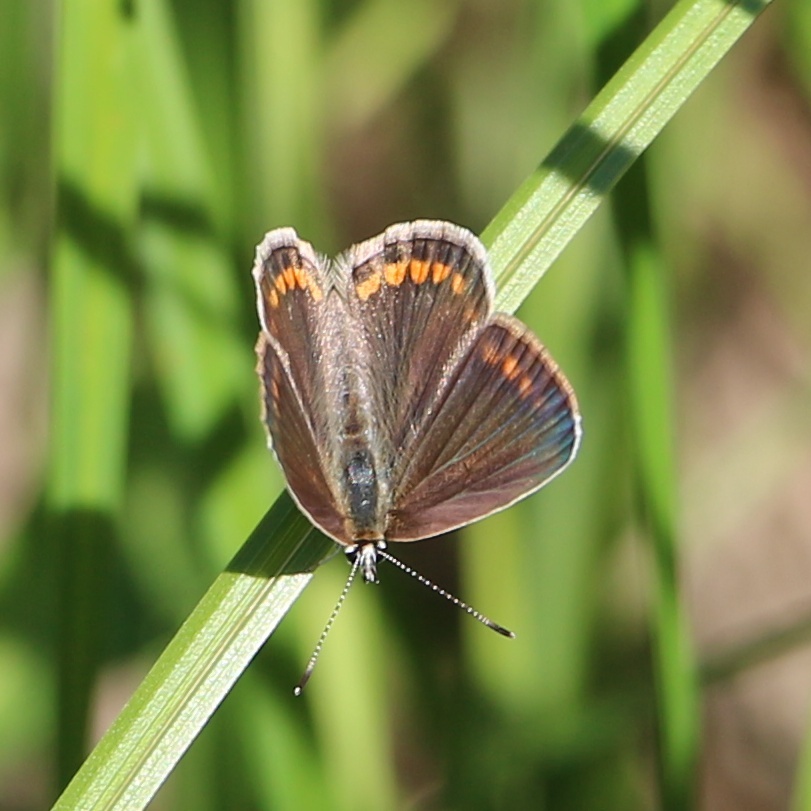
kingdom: Animalia
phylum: Arthropoda
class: Insecta
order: Lepidoptera
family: Lycaenidae
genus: Polyommatus
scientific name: Polyommatus icarus
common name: Common blue
